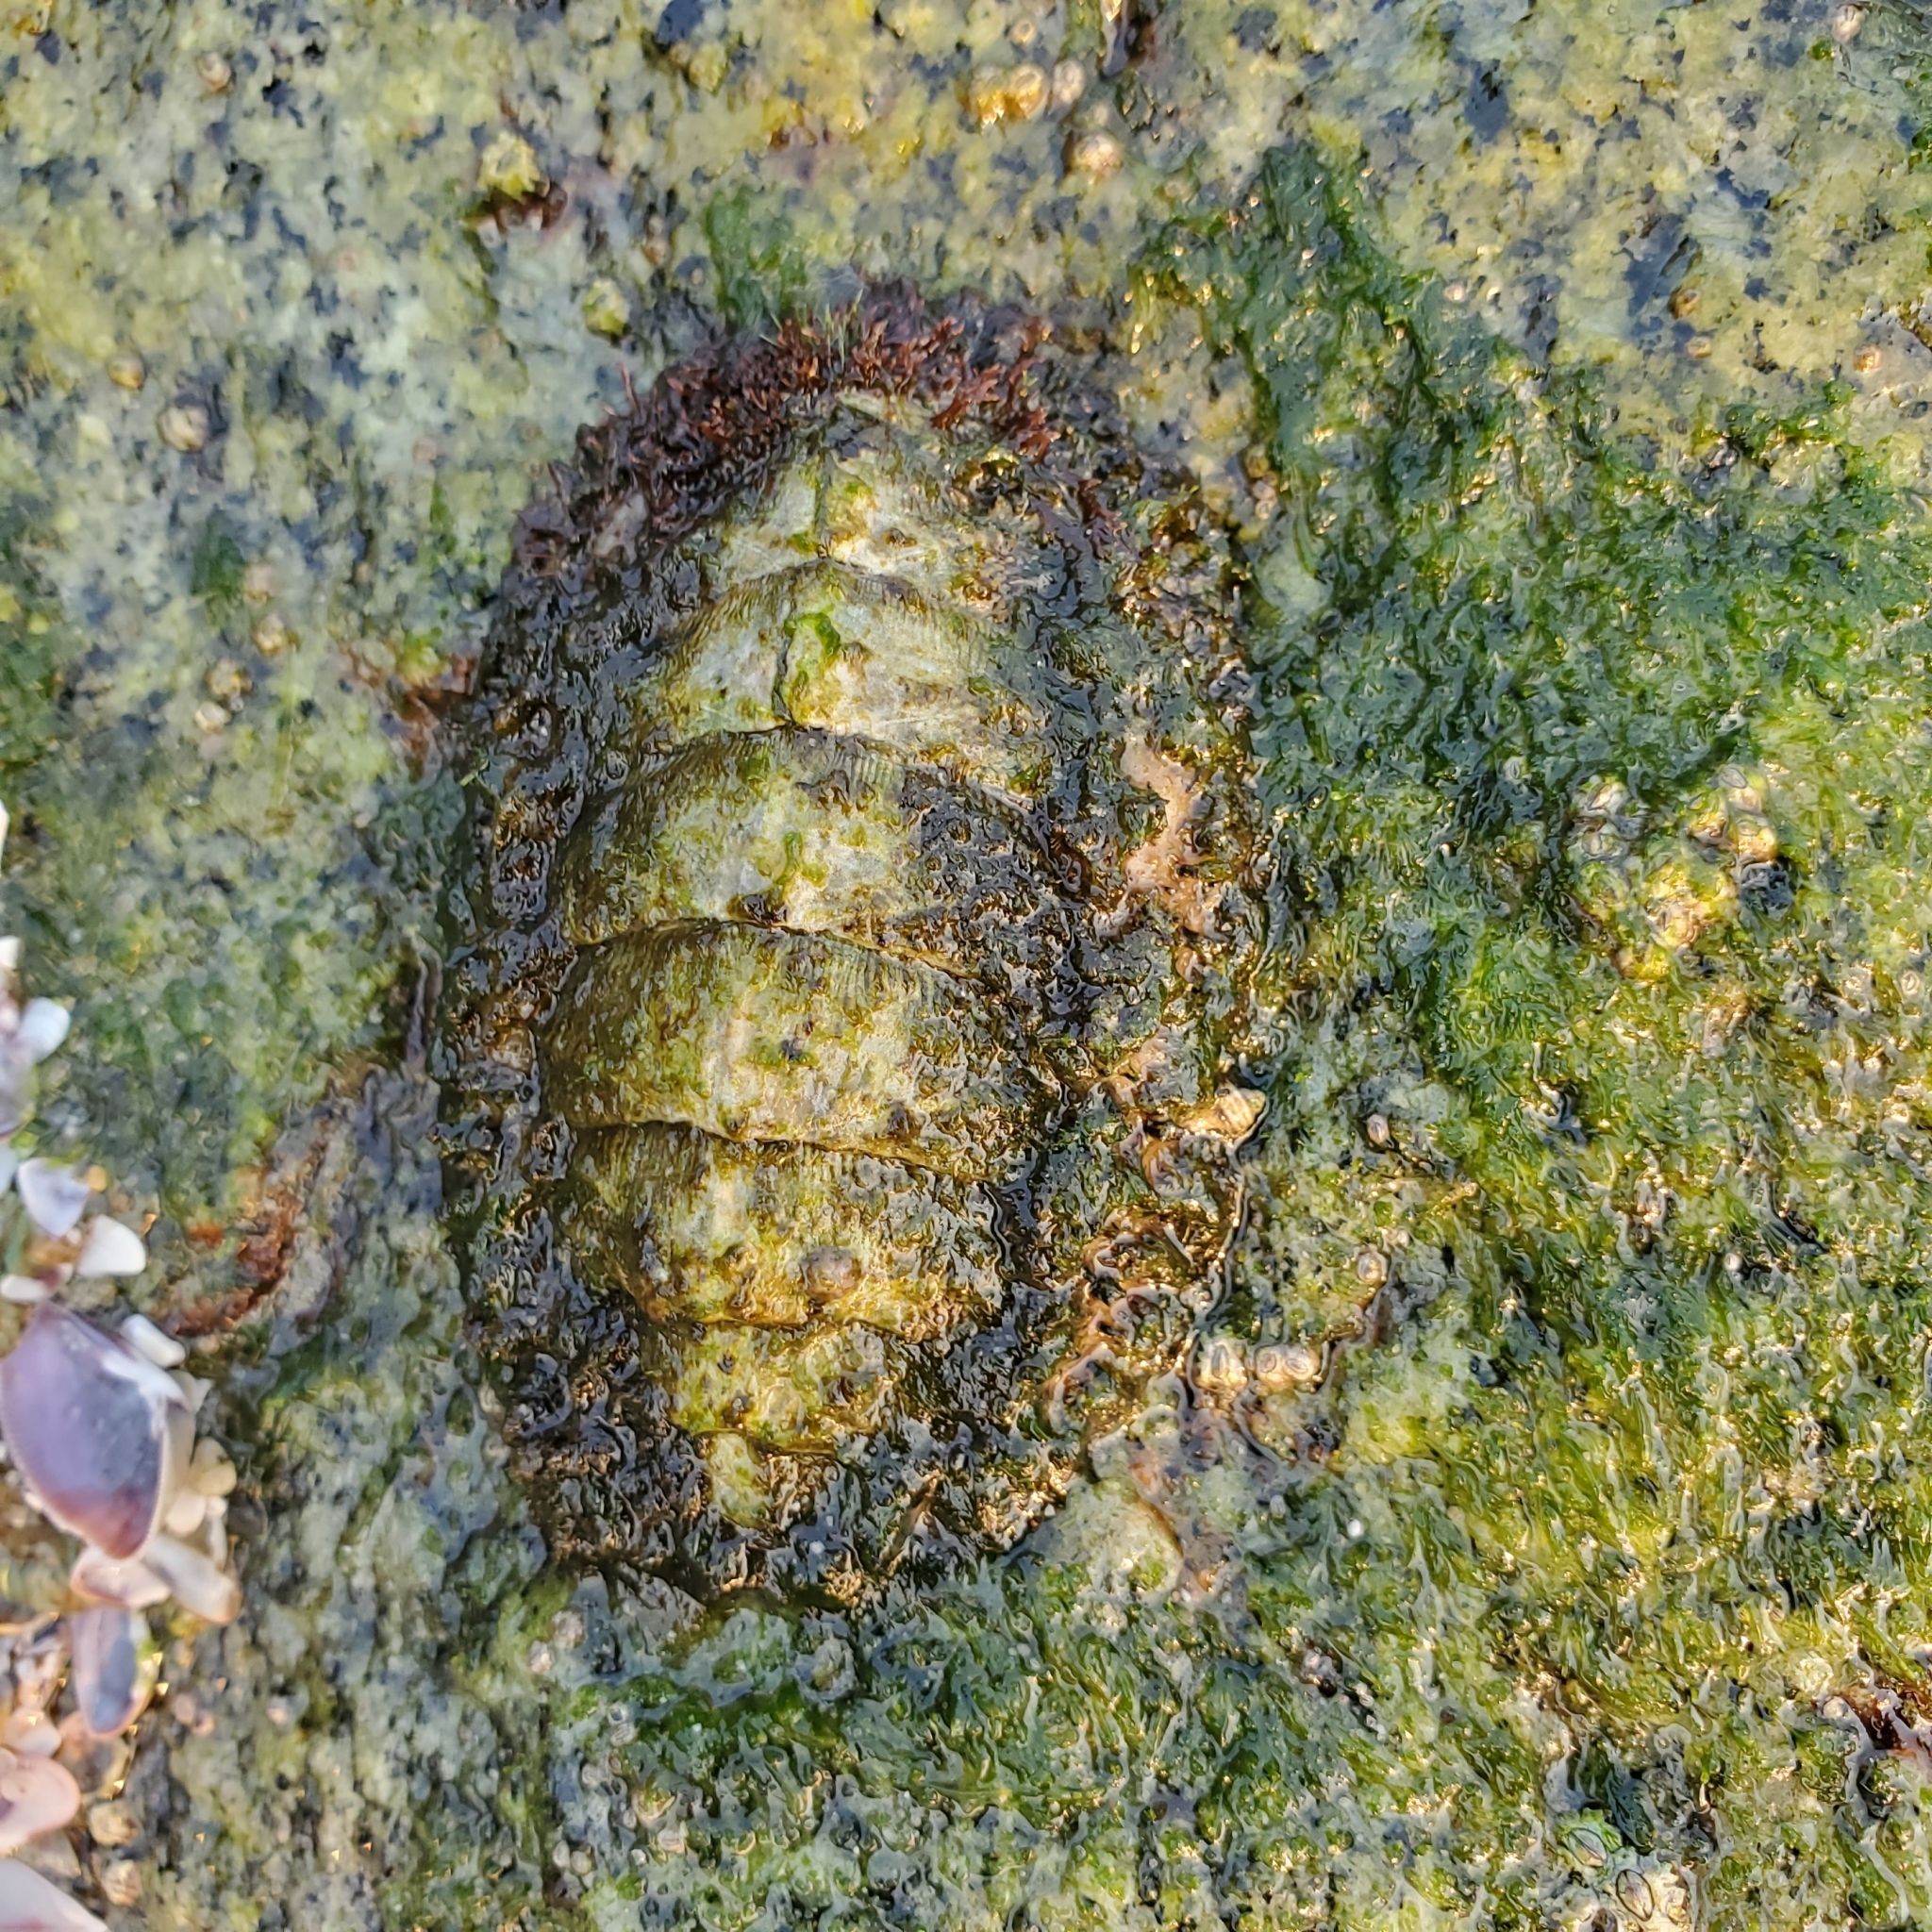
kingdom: Animalia
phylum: Mollusca
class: Polyplacophora
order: Chitonida
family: Mopaliidae
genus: Mopalia
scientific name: Mopalia muscosa
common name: Mossy chiton
